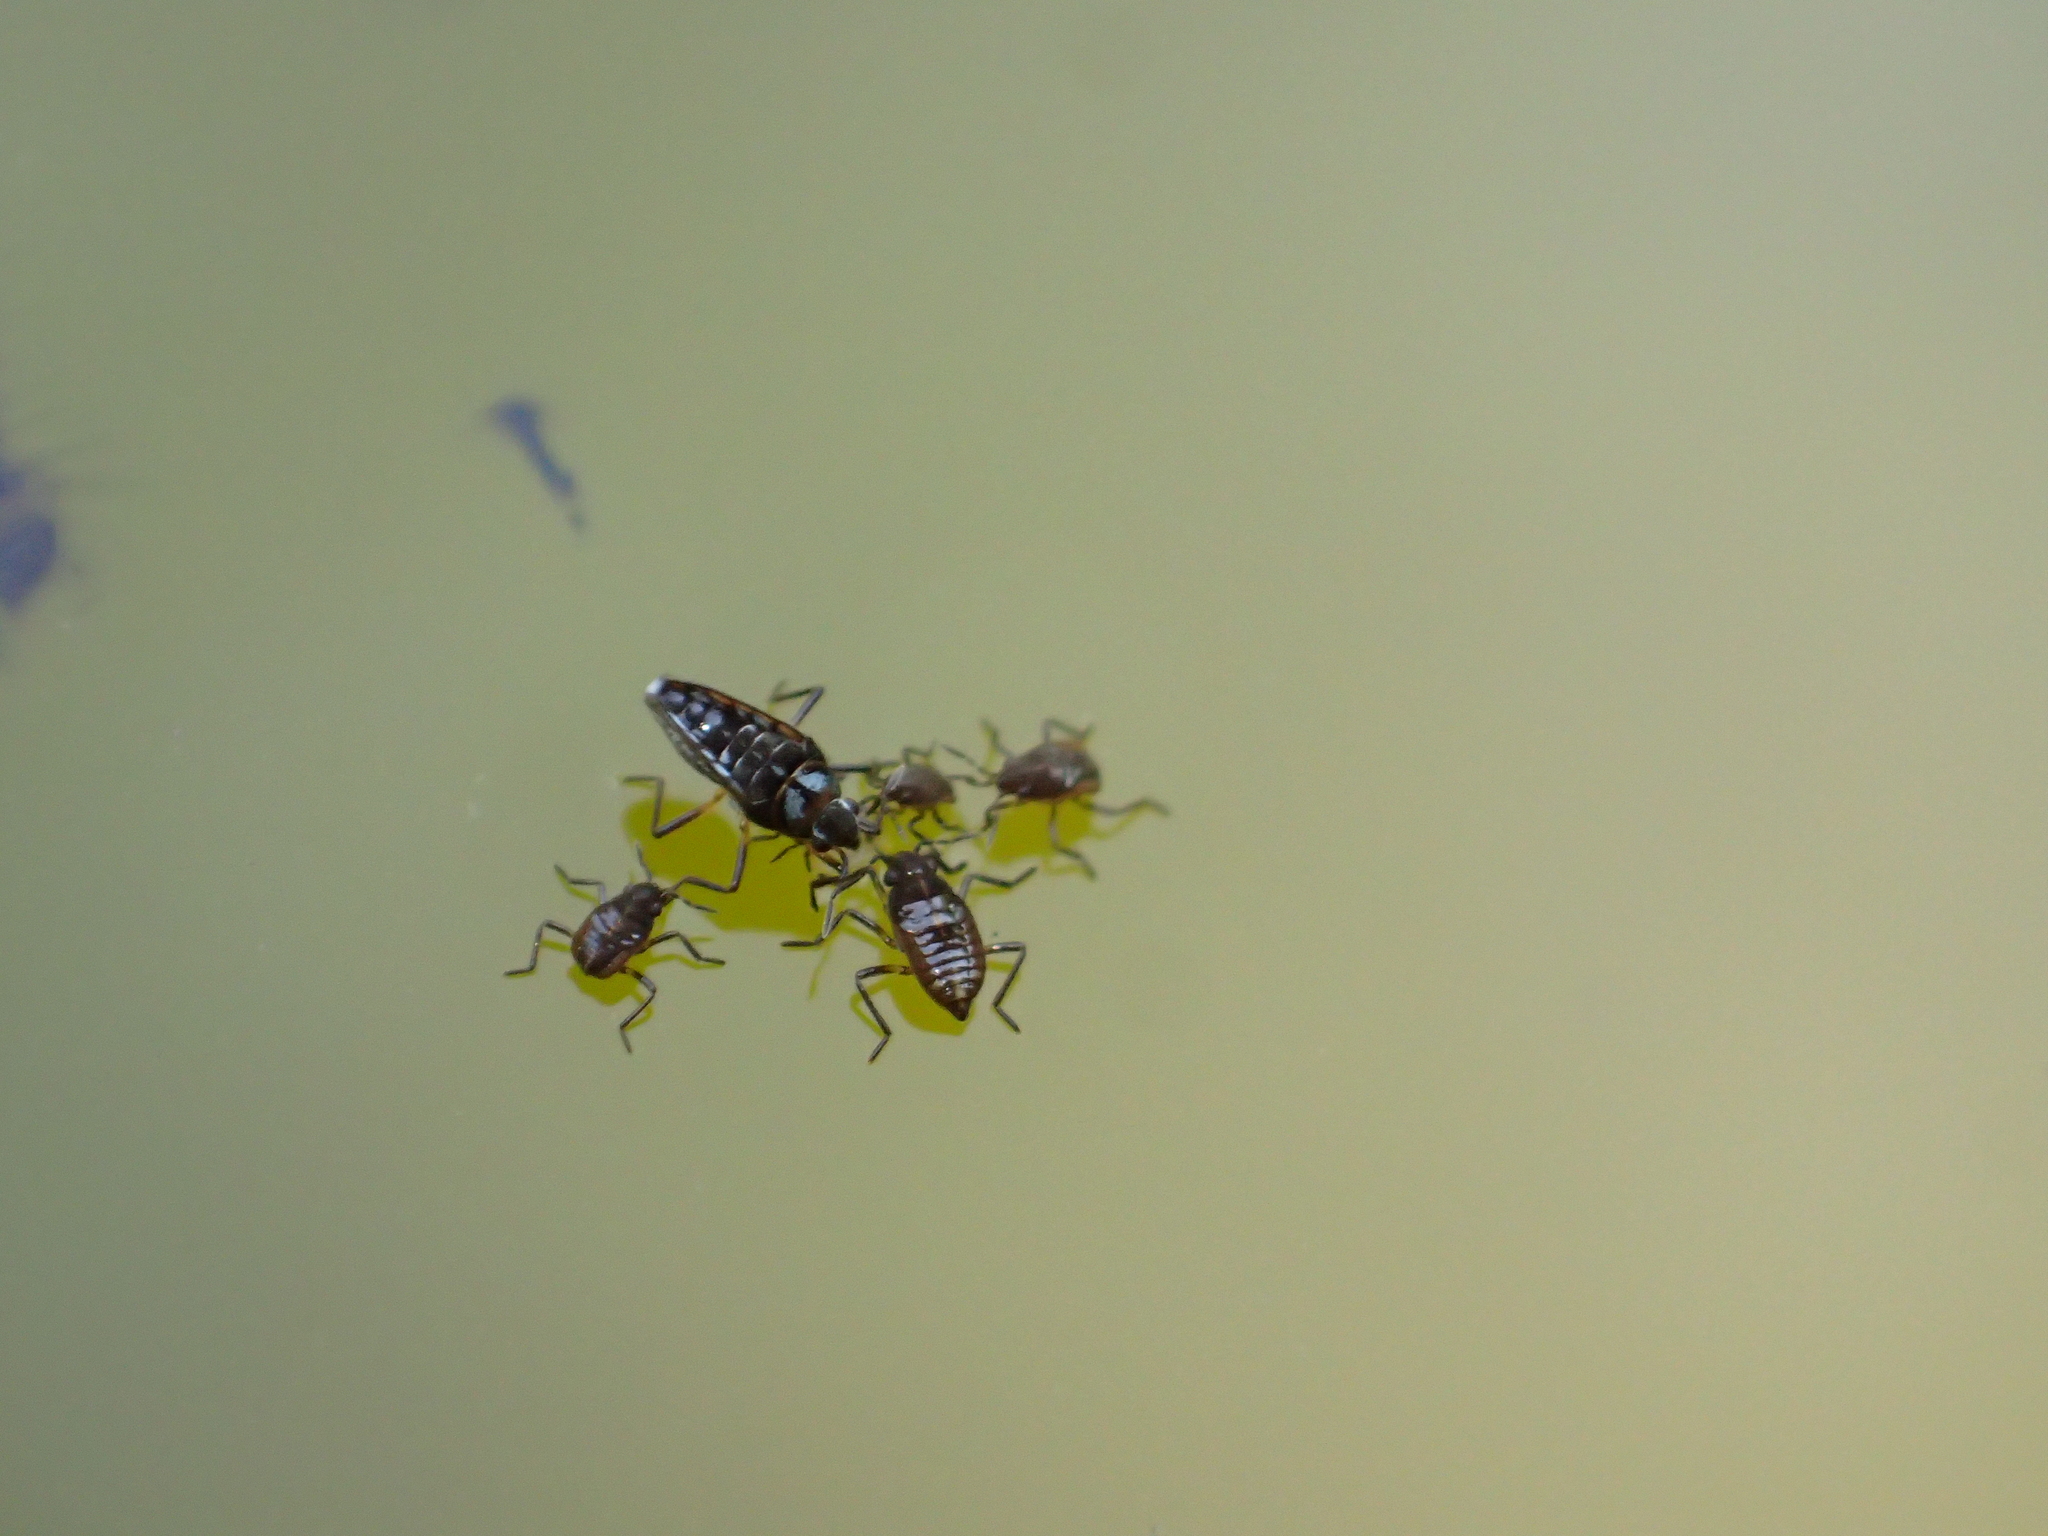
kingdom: Animalia
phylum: Arthropoda
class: Insecta
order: Hemiptera
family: Veliidae
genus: Microvelia
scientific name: Microvelia macgregori
